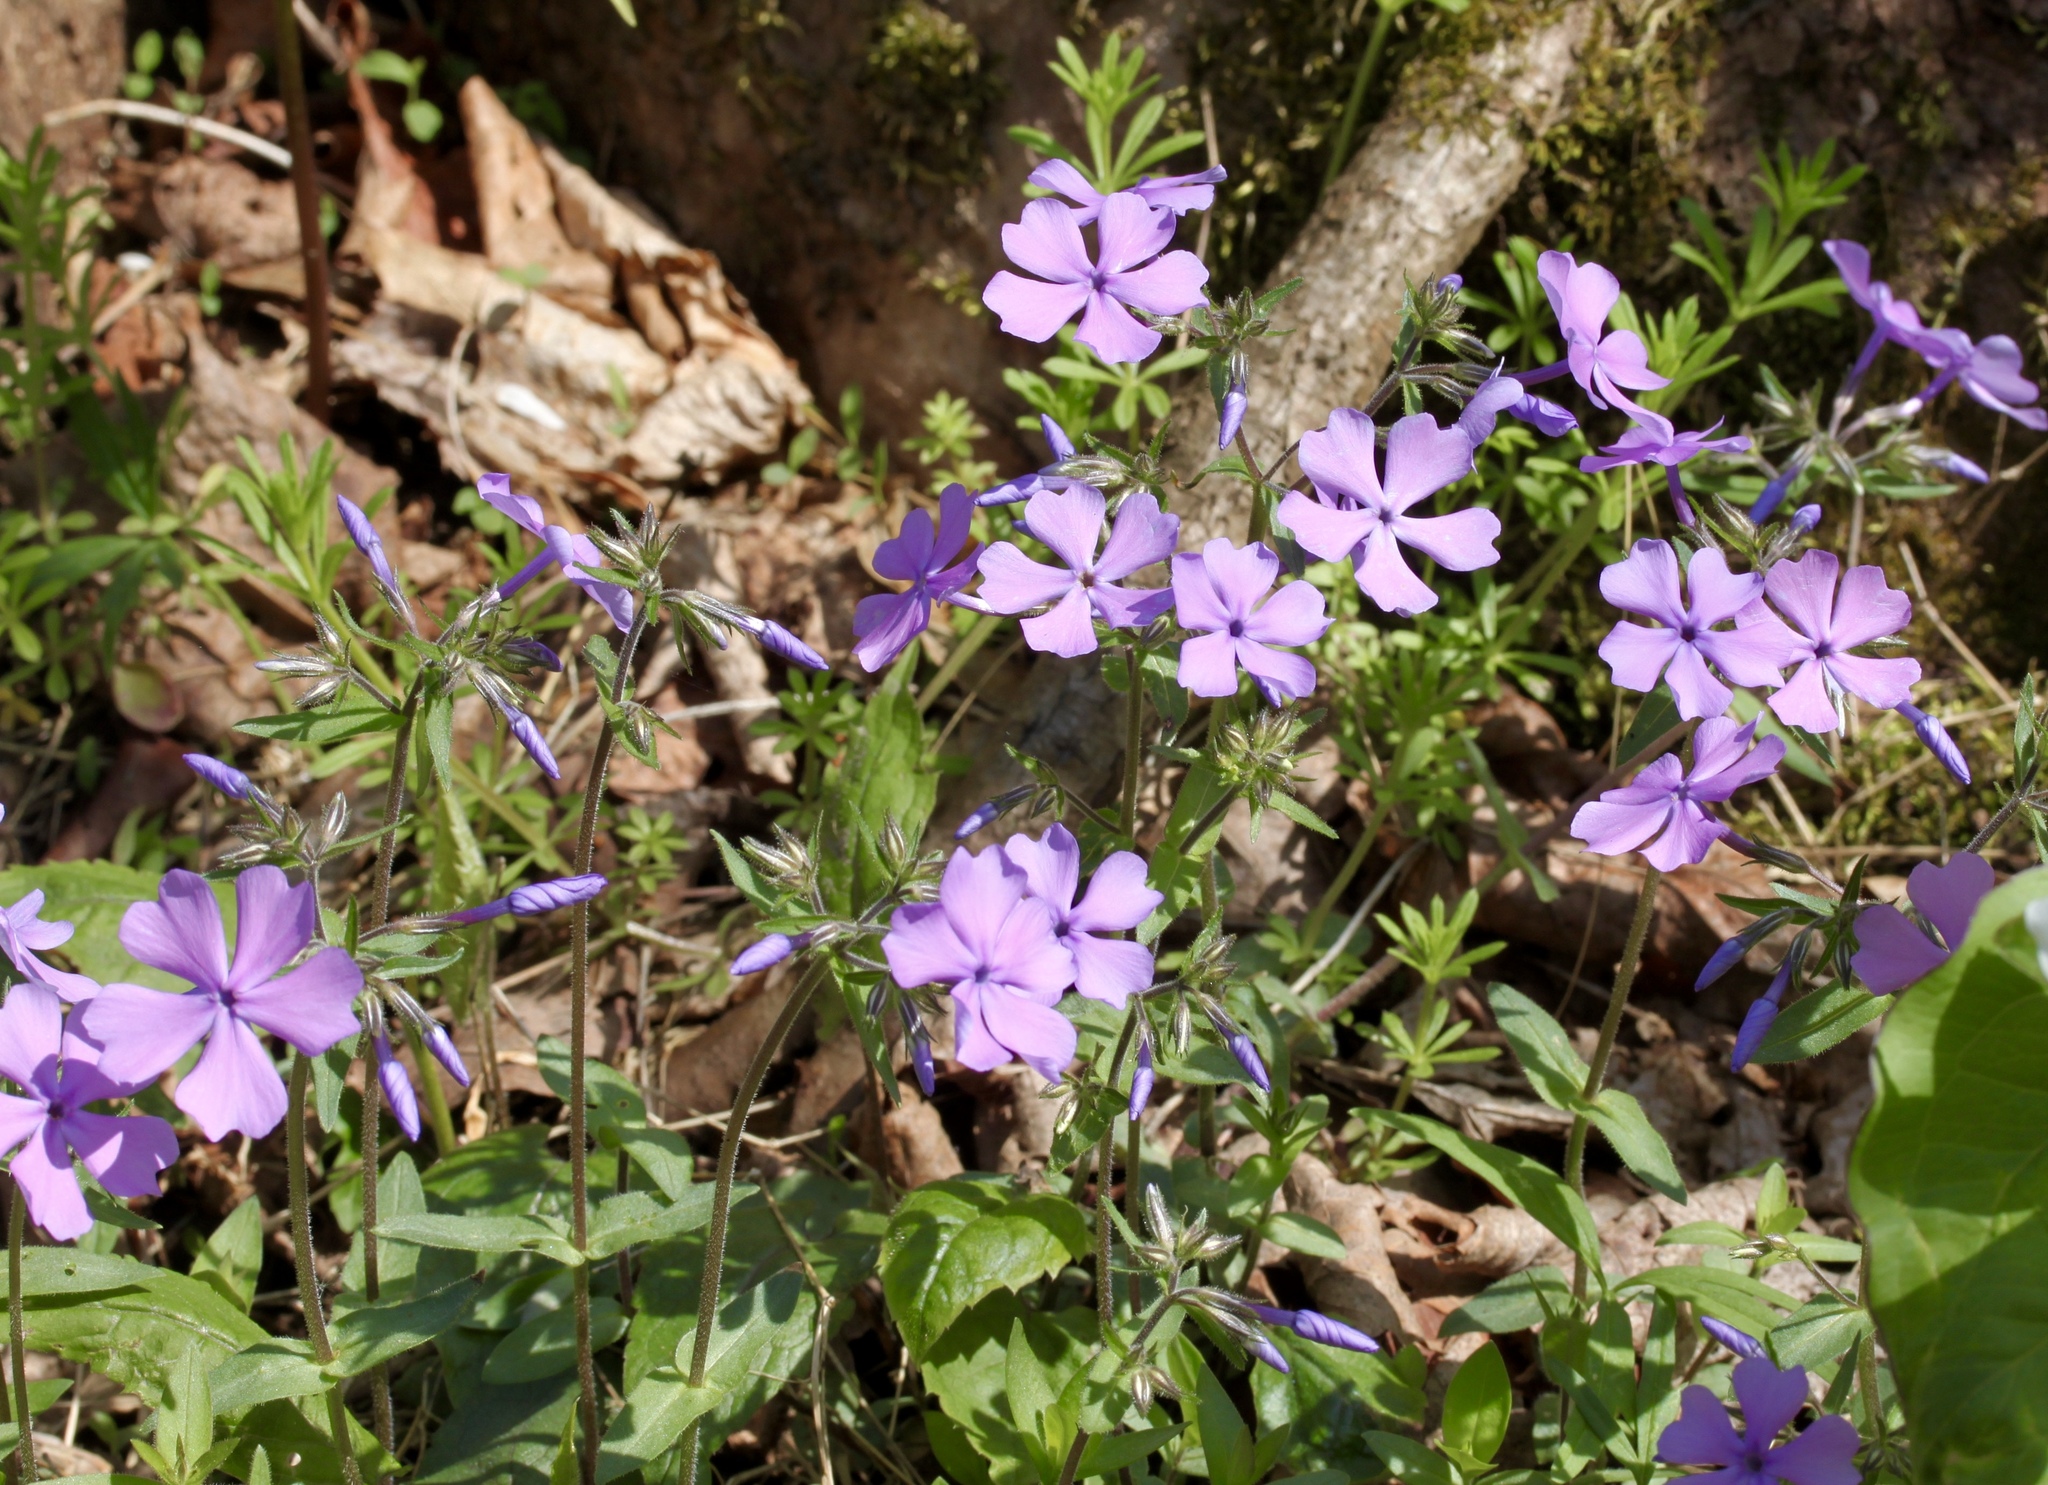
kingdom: Plantae
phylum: Tracheophyta
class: Magnoliopsida
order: Ericales
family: Polemoniaceae
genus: Phlox
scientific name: Phlox divaricata
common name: Blue phlox
